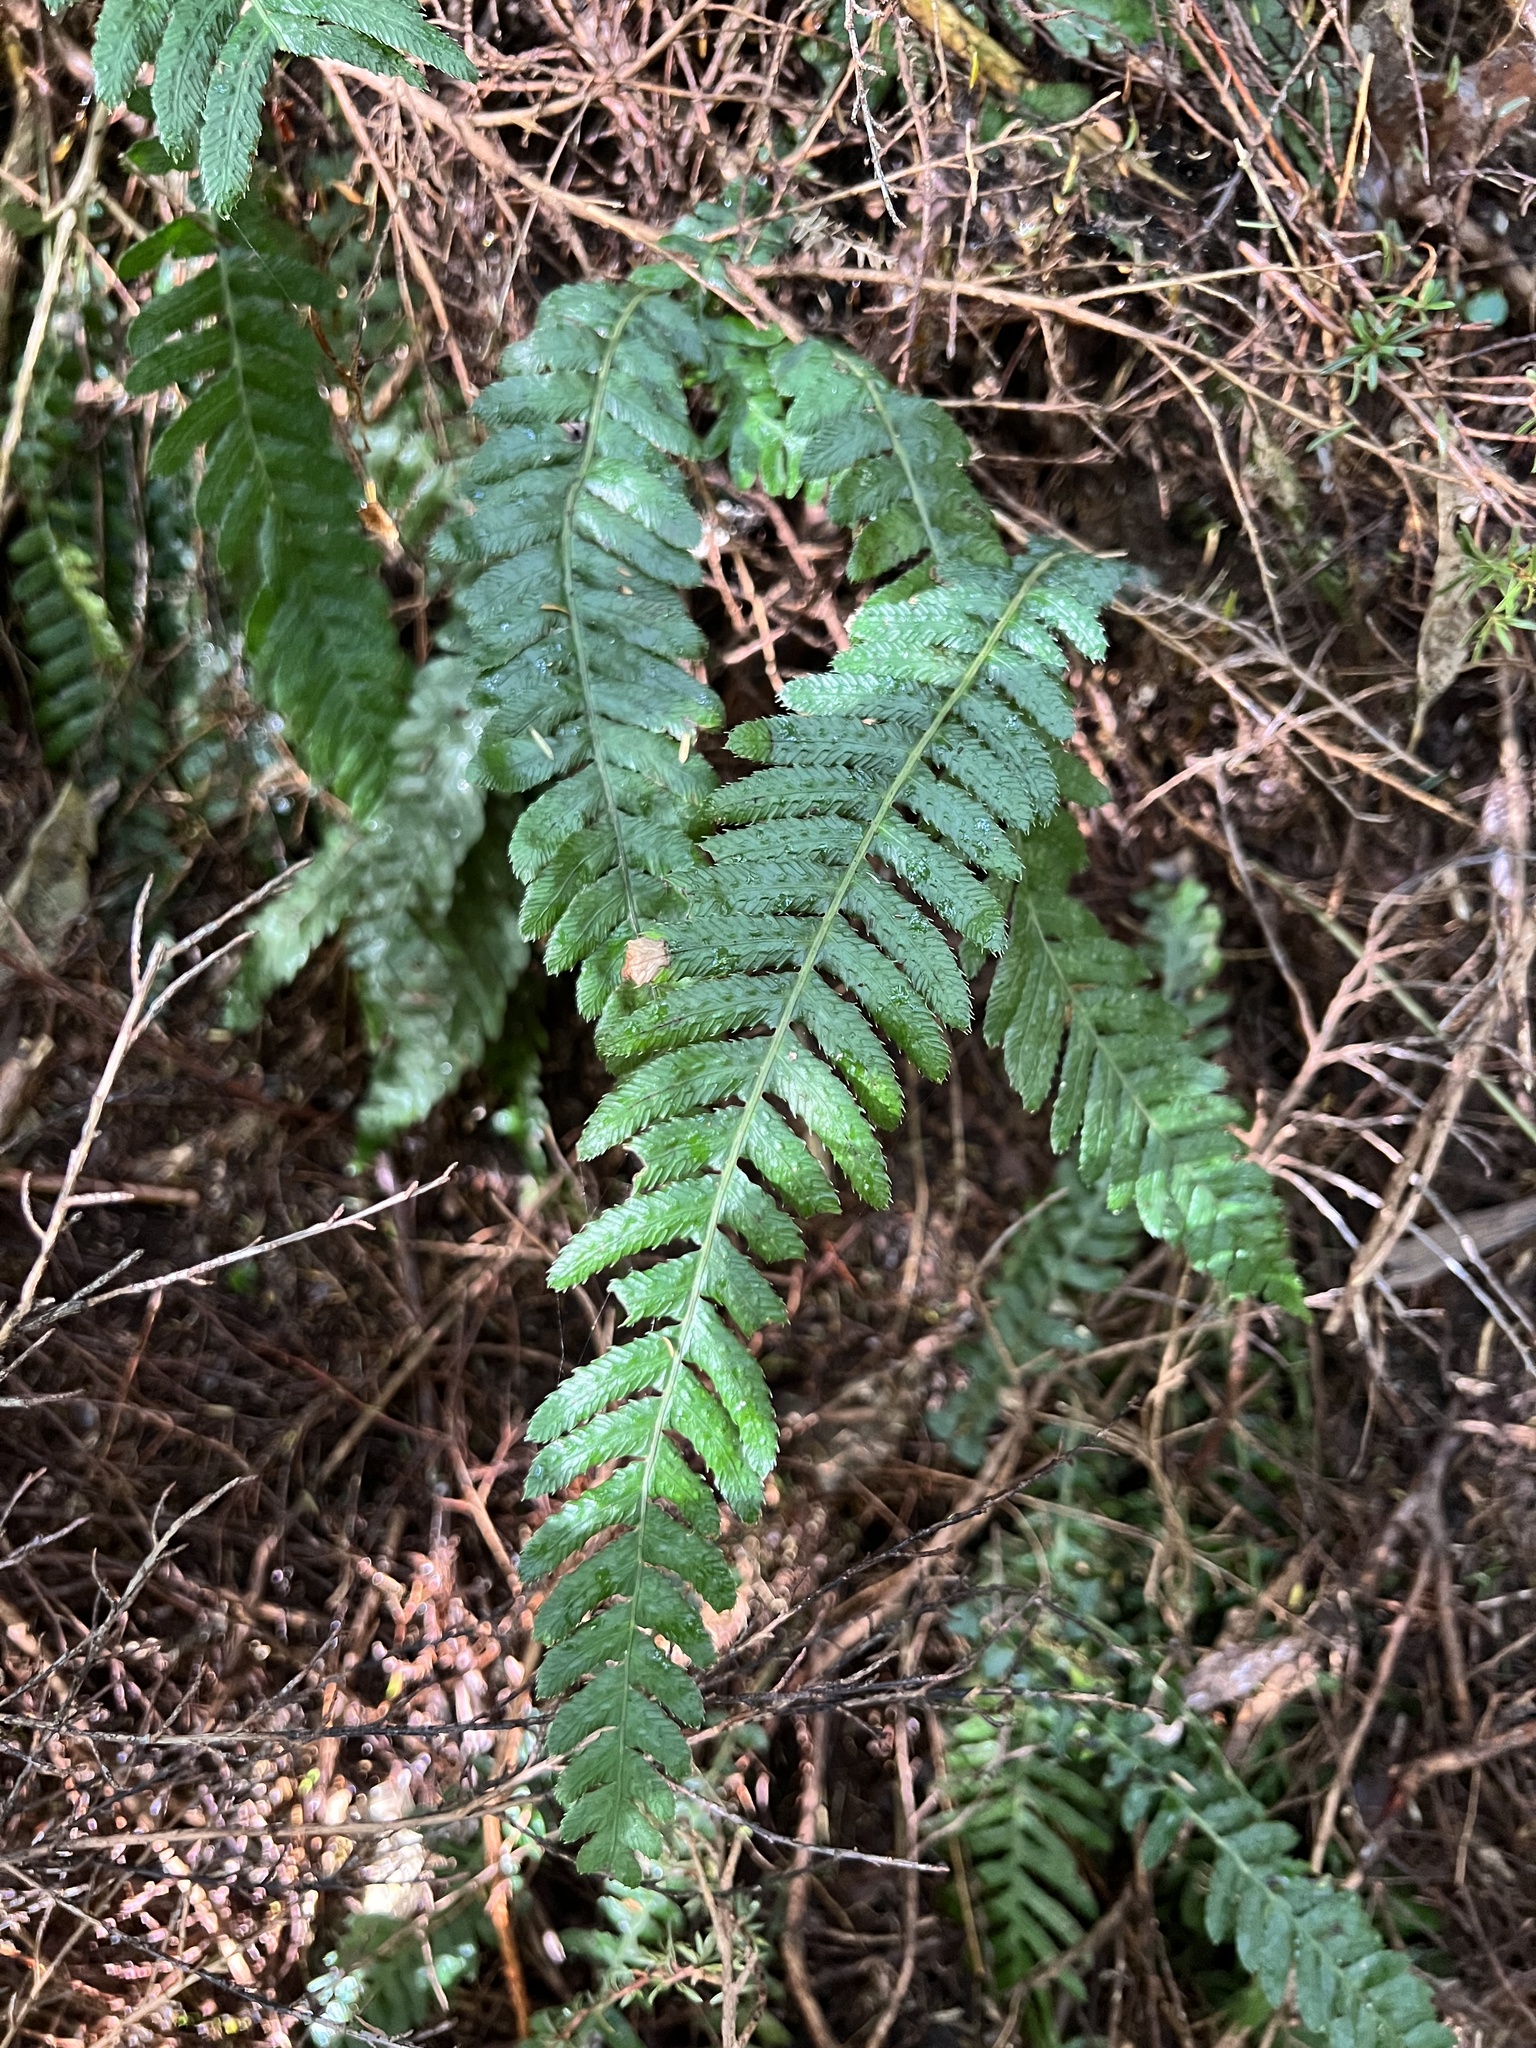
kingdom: Plantae
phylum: Tracheophyta
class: Polypodiopsida
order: Polypodiales
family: Blechnaceae
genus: Doodia
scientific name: Doodia australis
